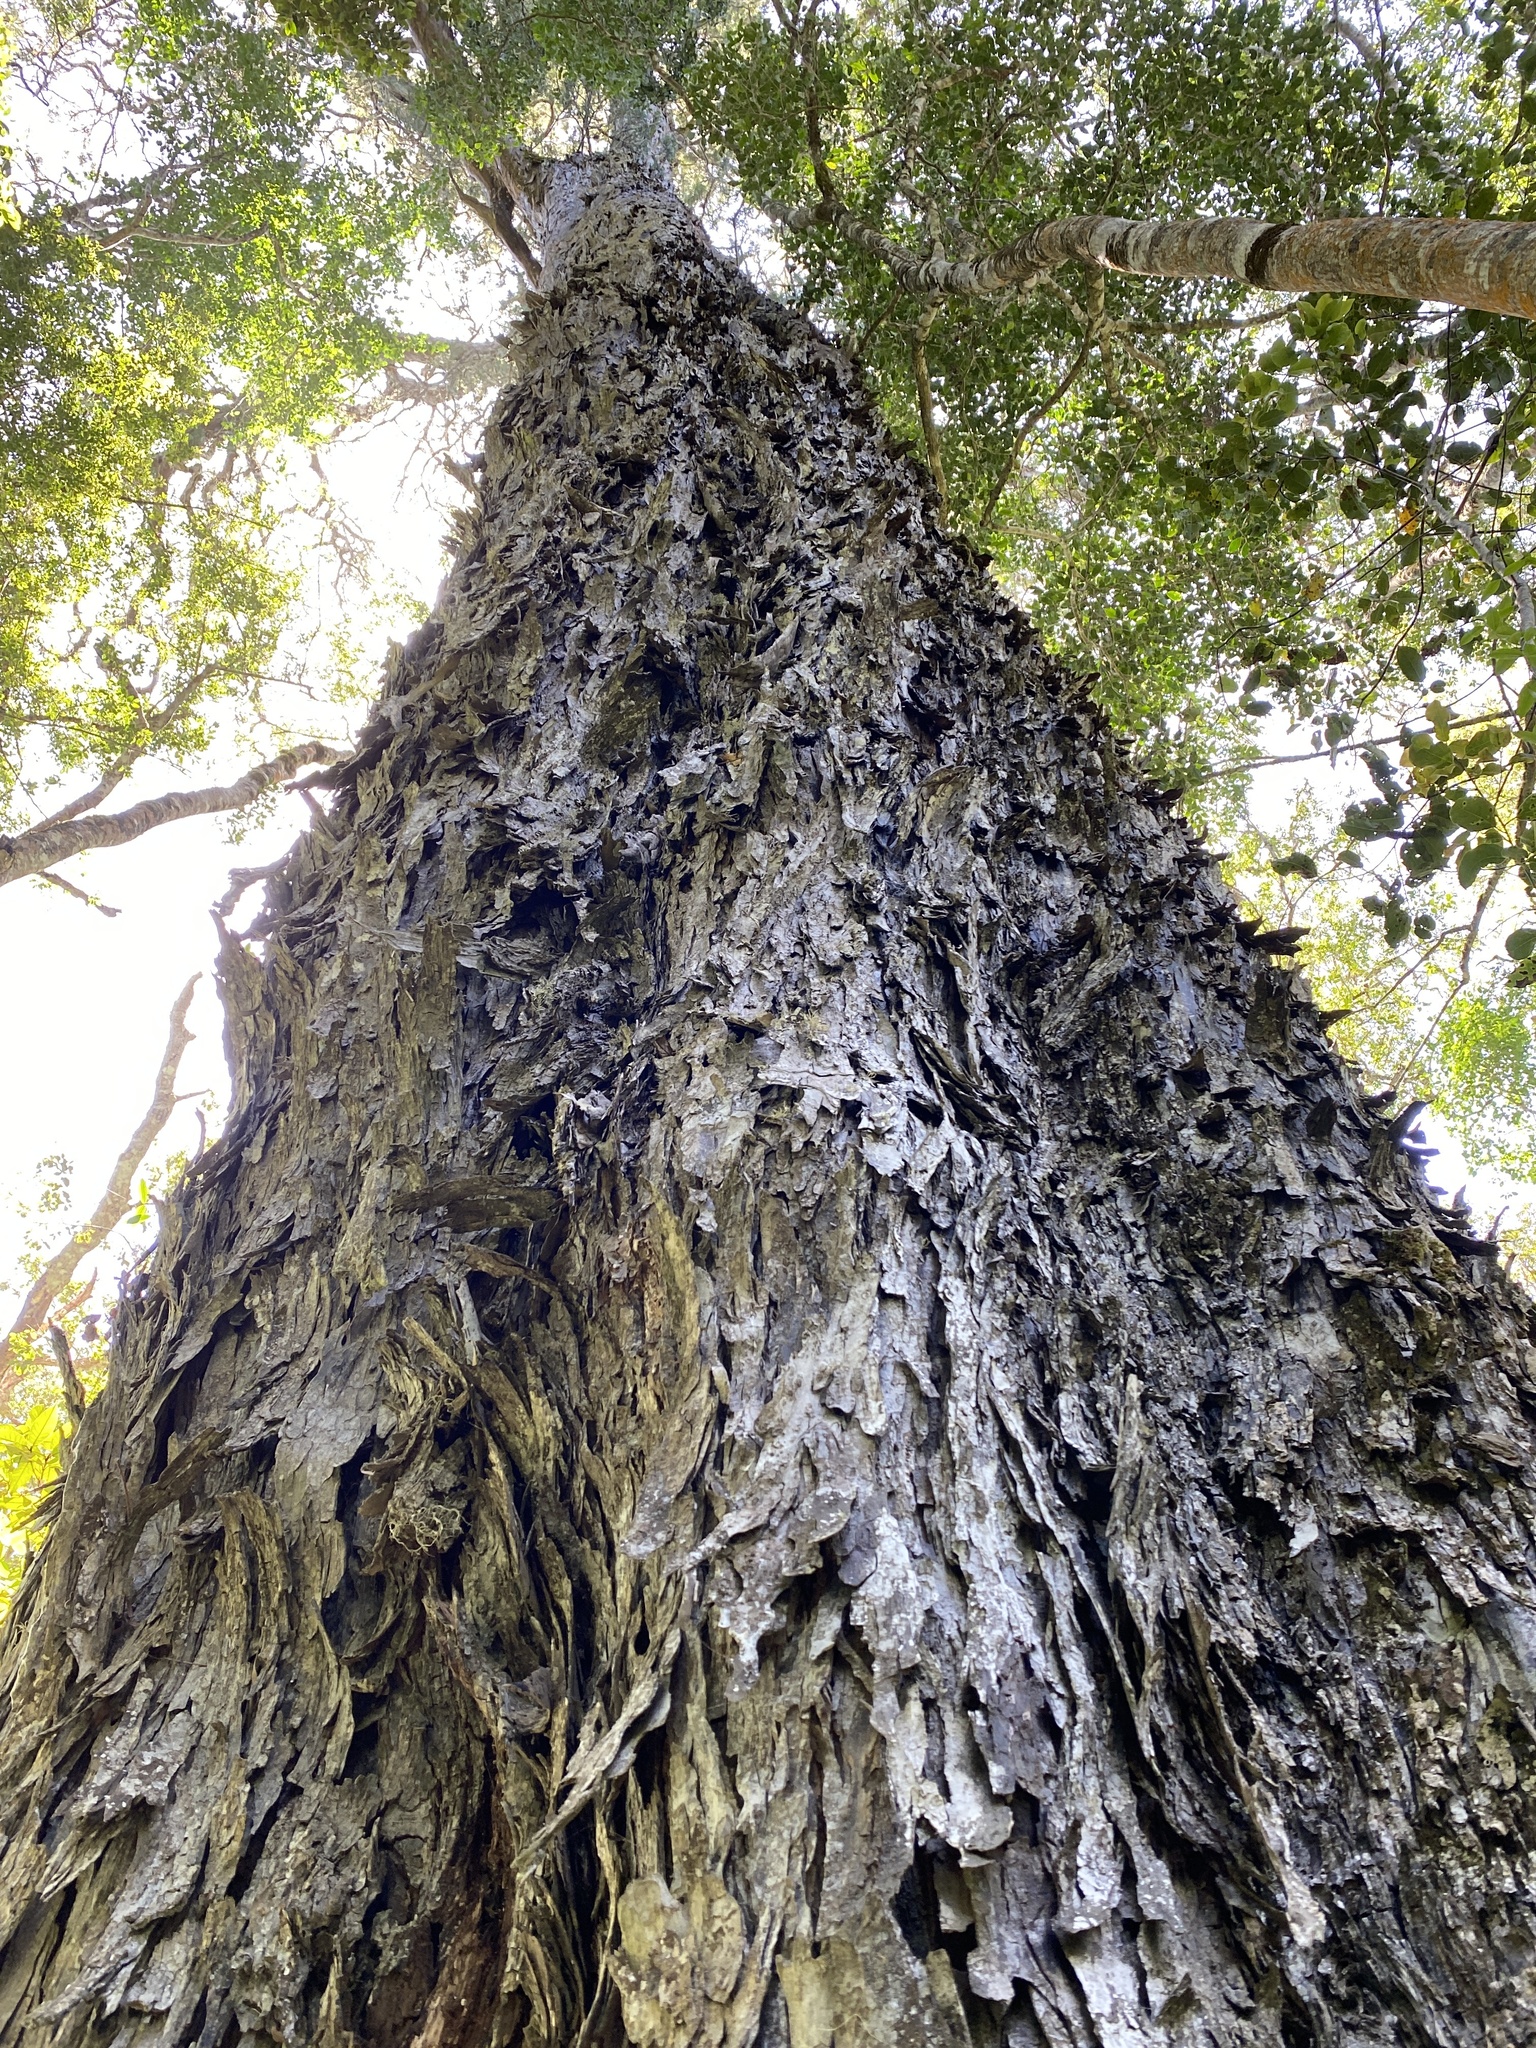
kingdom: Plantae
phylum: Tracheophyta
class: Pinopsida
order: Pinales
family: Podocarpaceae
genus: Afrocarpus
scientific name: Afrocarpus falcatus
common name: Bastard yellowwood
